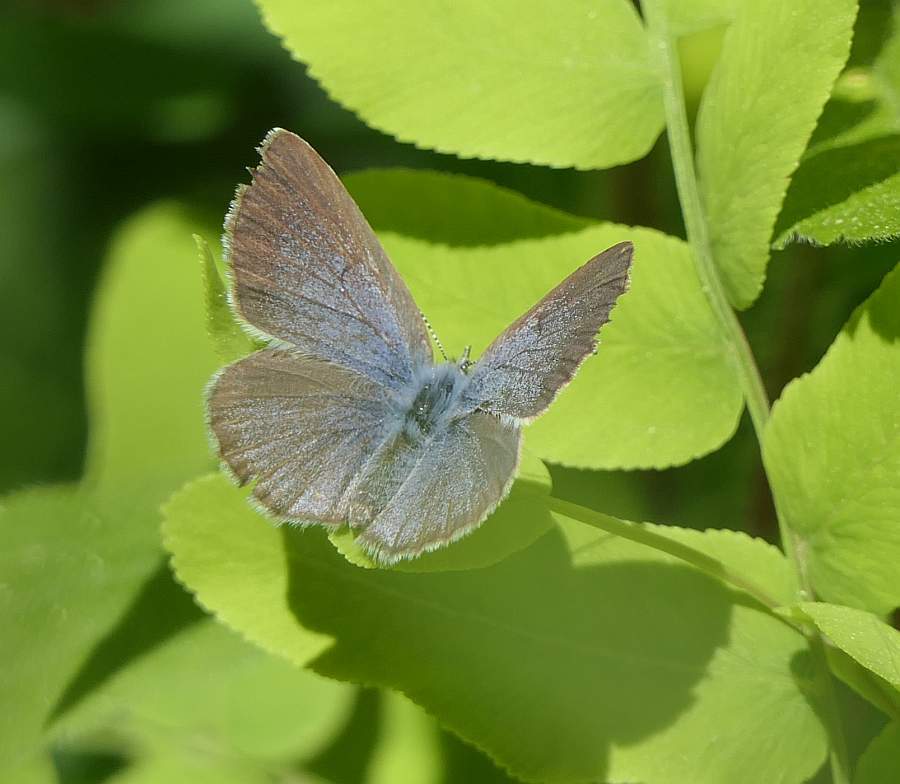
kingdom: Animalia
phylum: Arthropoda
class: Insecta
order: Lepidoptera
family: Lycaenidae
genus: Glaucopsyche
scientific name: Glaucopsyche lygdamus
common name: Silvery blue
